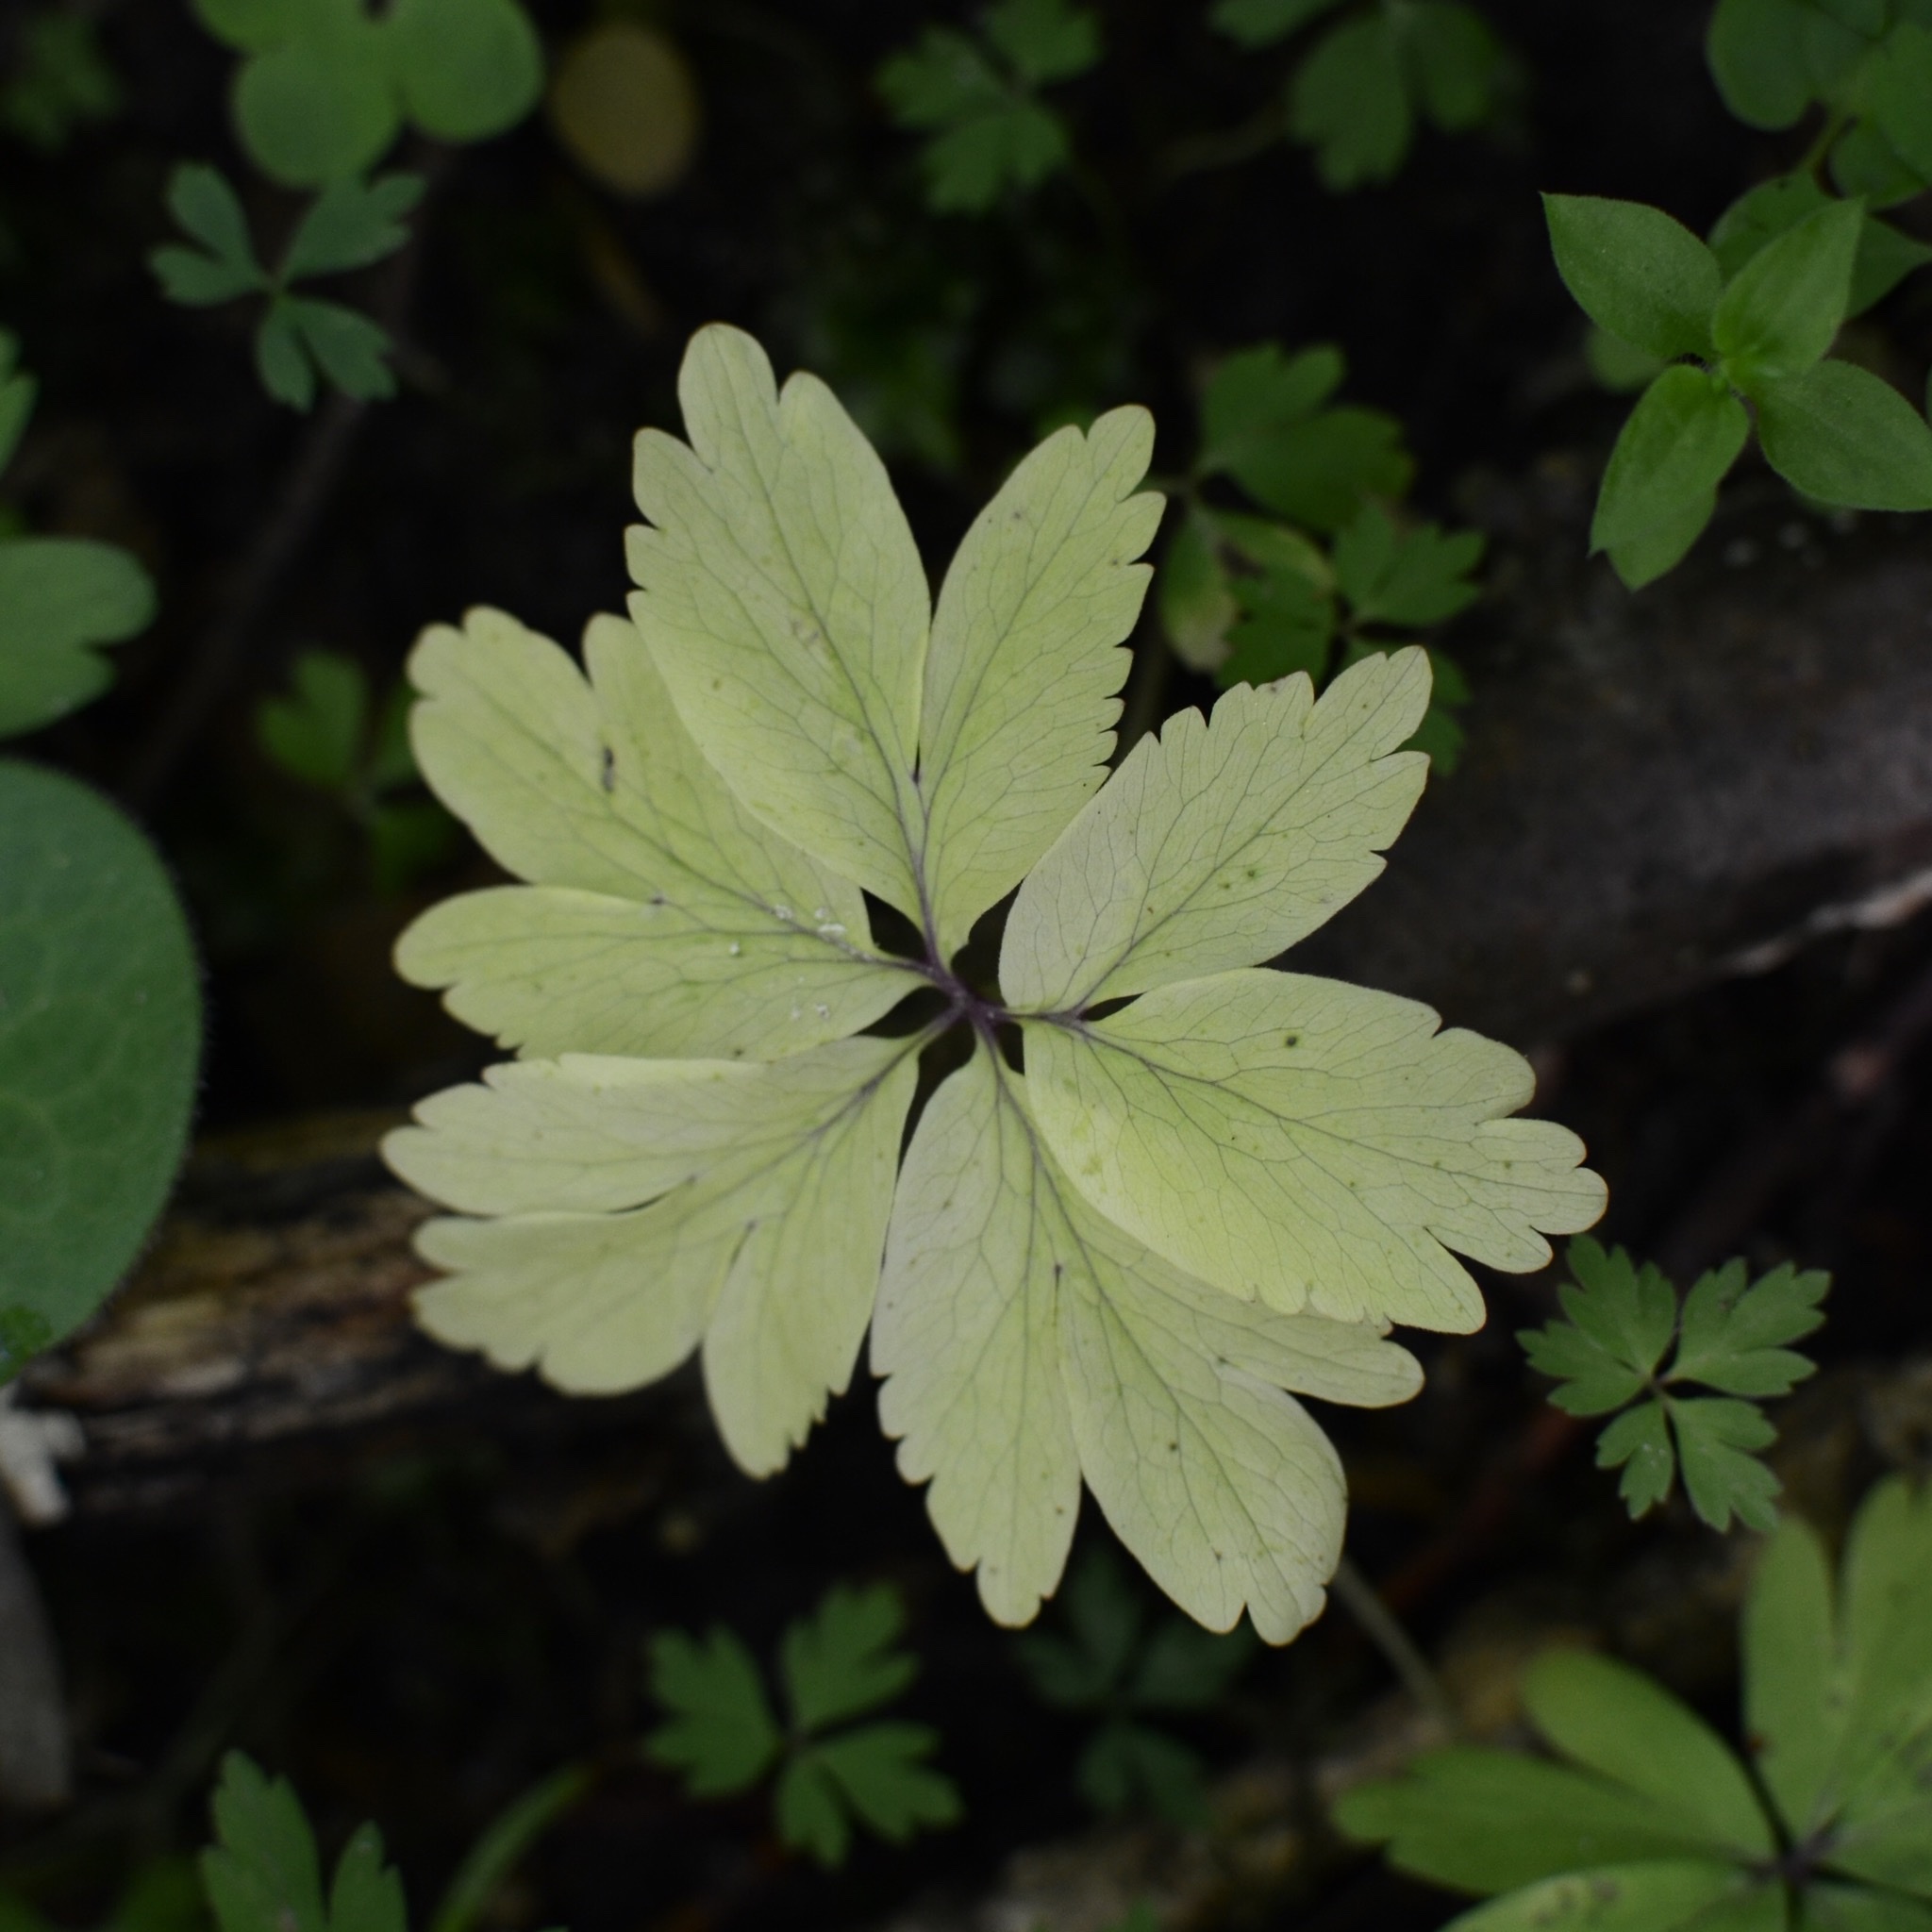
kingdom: Plantae
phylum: Tracheophyta
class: Magnoliopsida
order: Ranunculales
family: Ranunculaceae
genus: Anemone
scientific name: Anemone nemorosa
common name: Wood anemone
